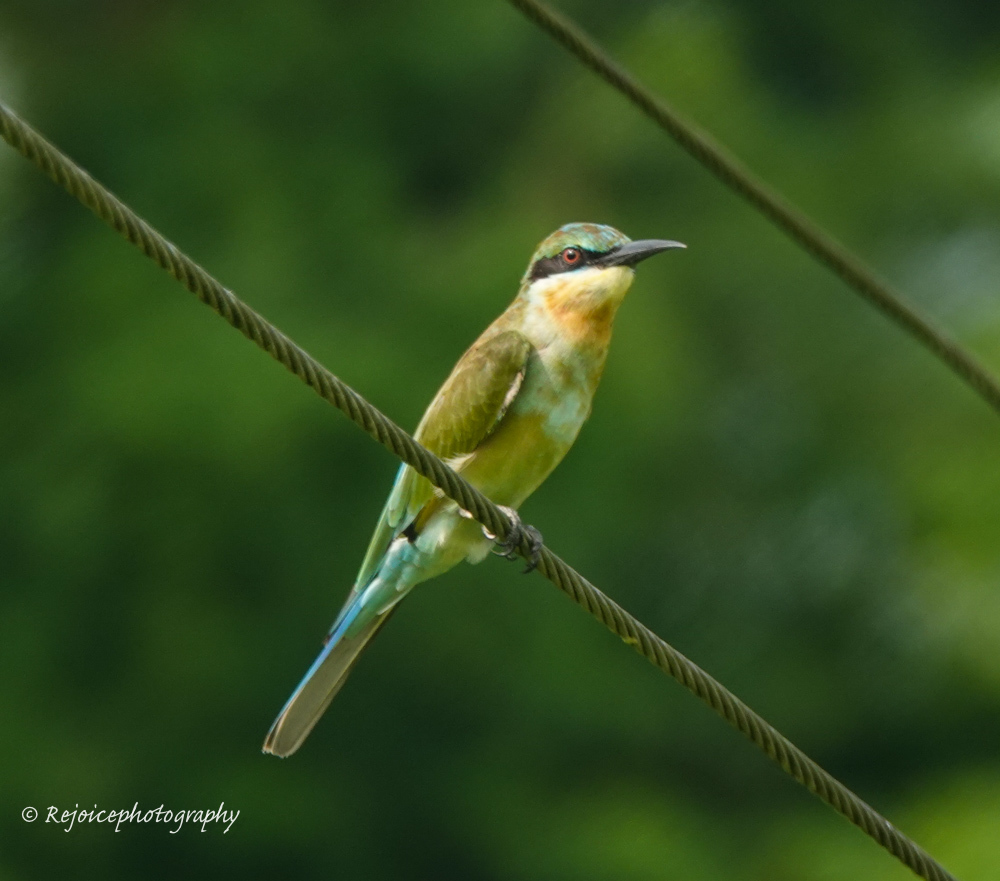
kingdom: Animalia
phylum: Chordata
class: Aves
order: Coraciiformes
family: Meropidae
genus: Merops
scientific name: Merops philippinus
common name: Blue-tailed bee-eater
